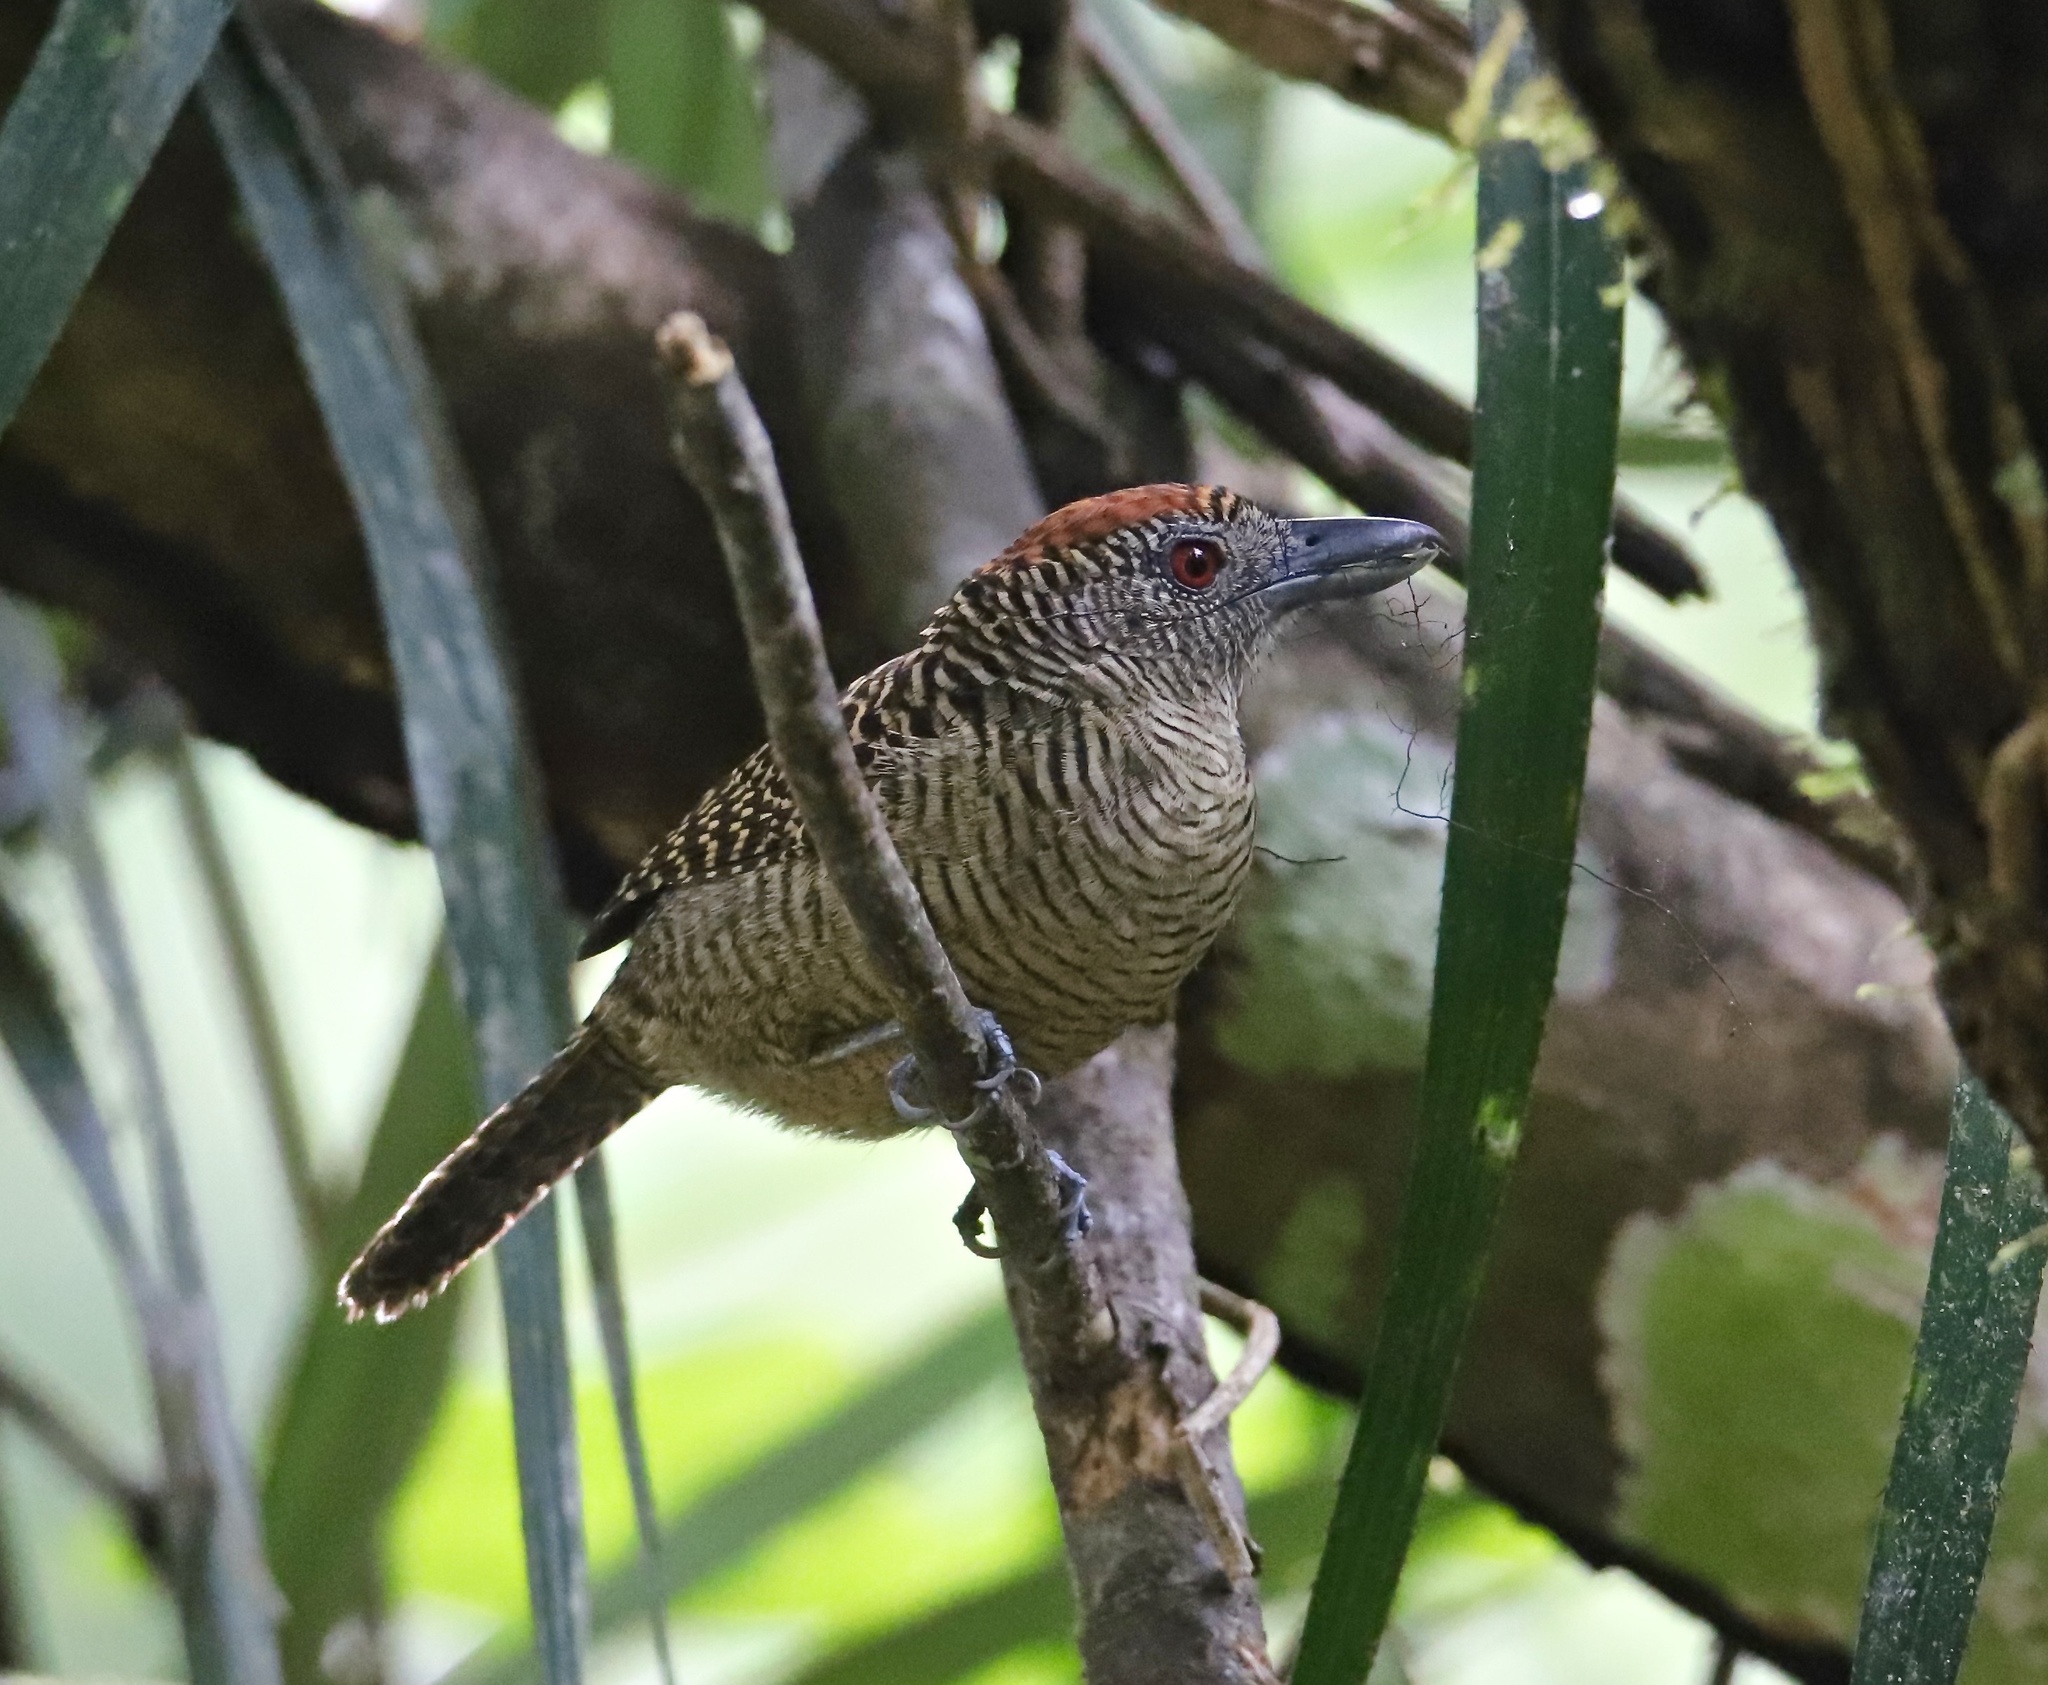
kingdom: Animalia
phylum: Chordata
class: Aves
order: Passeriformes
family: Thamnophilidae
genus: Cymbilaimus
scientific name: Cymbilaimus lineatus
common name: Fasciated antshrike
